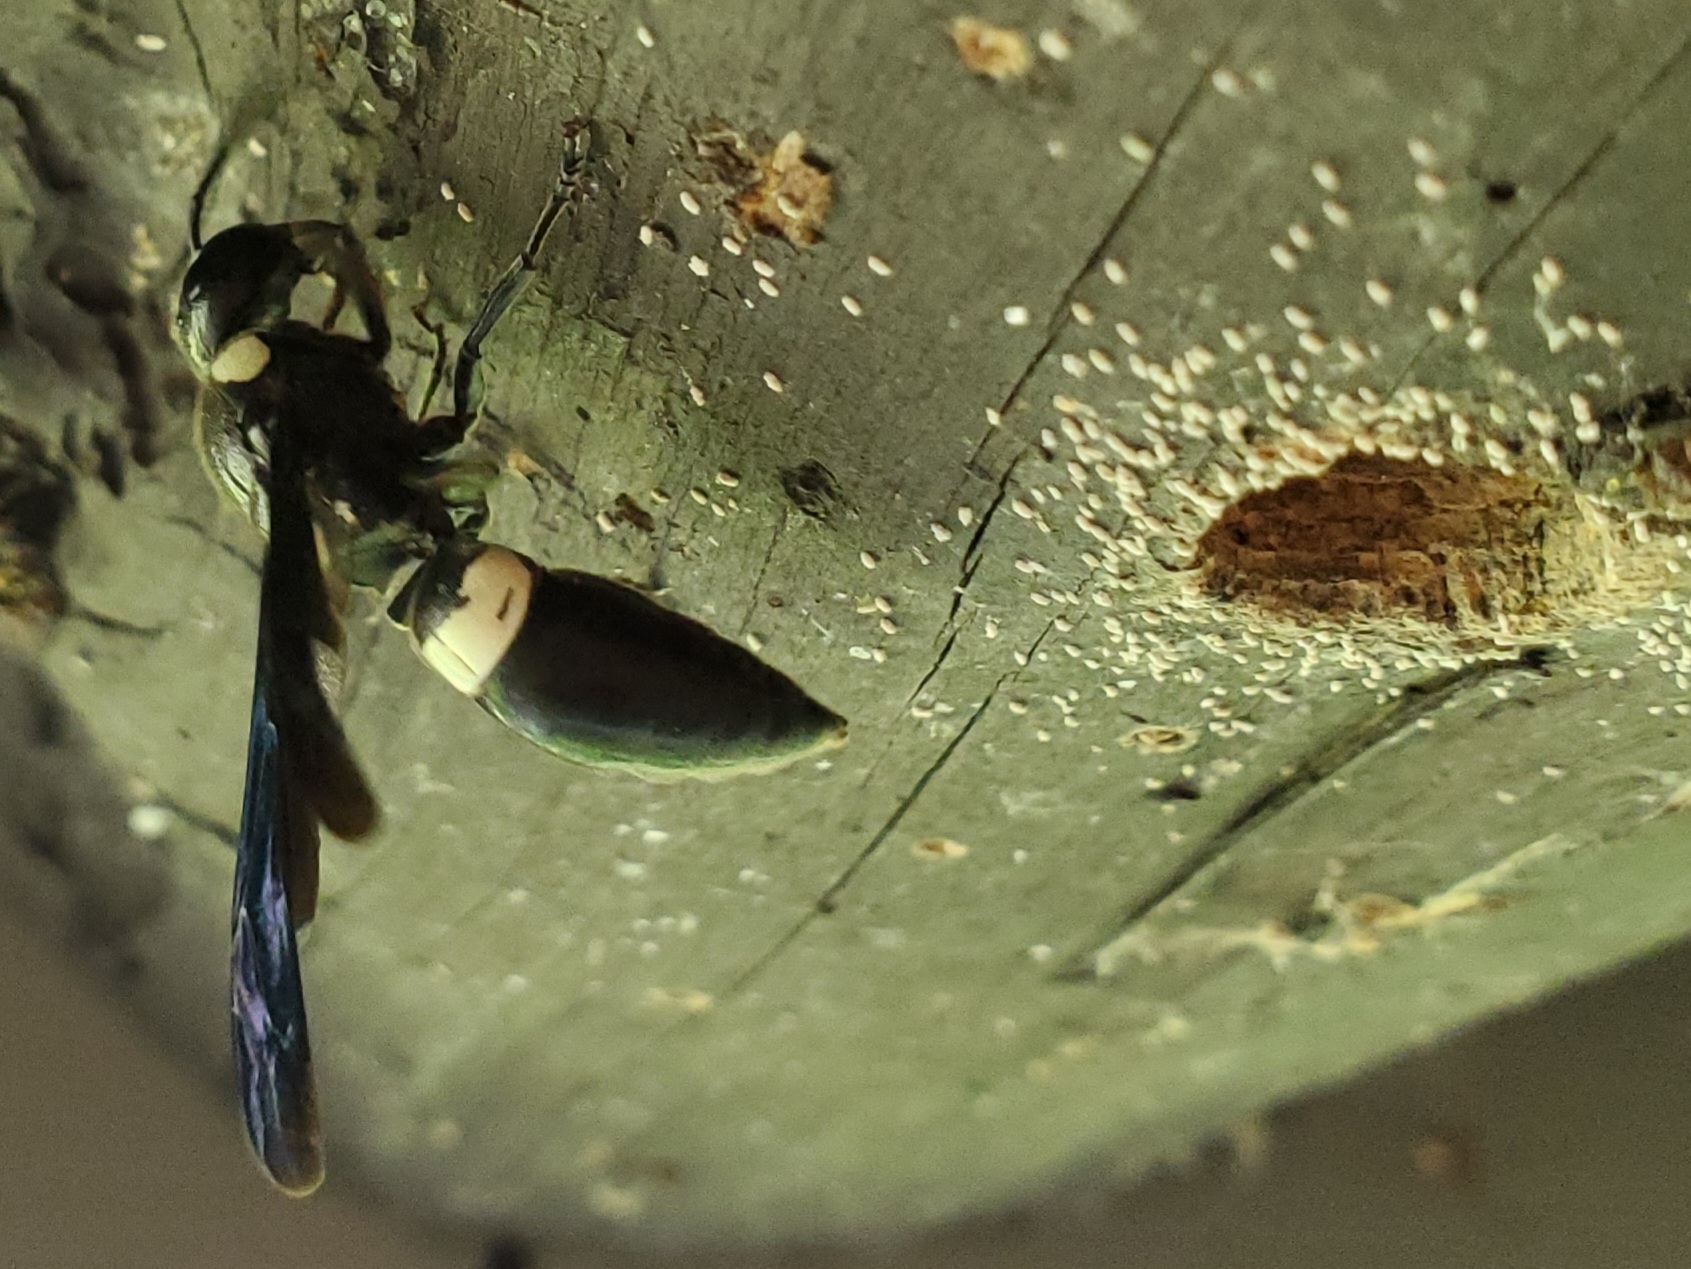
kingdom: Animalia
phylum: Arthropoda
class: Insecta
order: Hymenoptera
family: Eumenidae
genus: Monobia
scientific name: Monobia quadridens
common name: Four-toothed mason wasp
